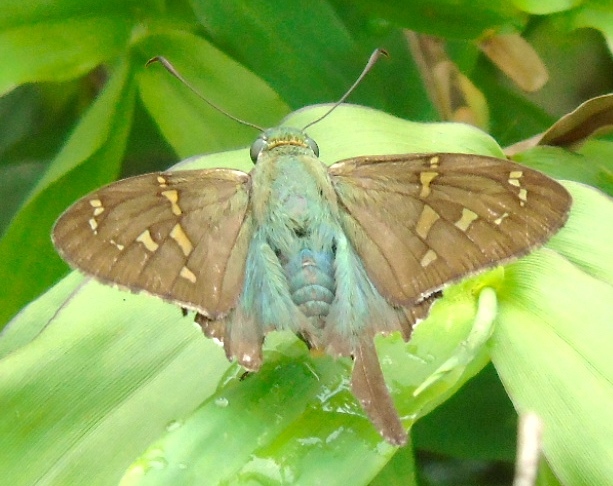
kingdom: Animalia
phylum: Arthropoda
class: Insecta
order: Lepidoptera
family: Hesperiidae
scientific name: Hesperiidae
